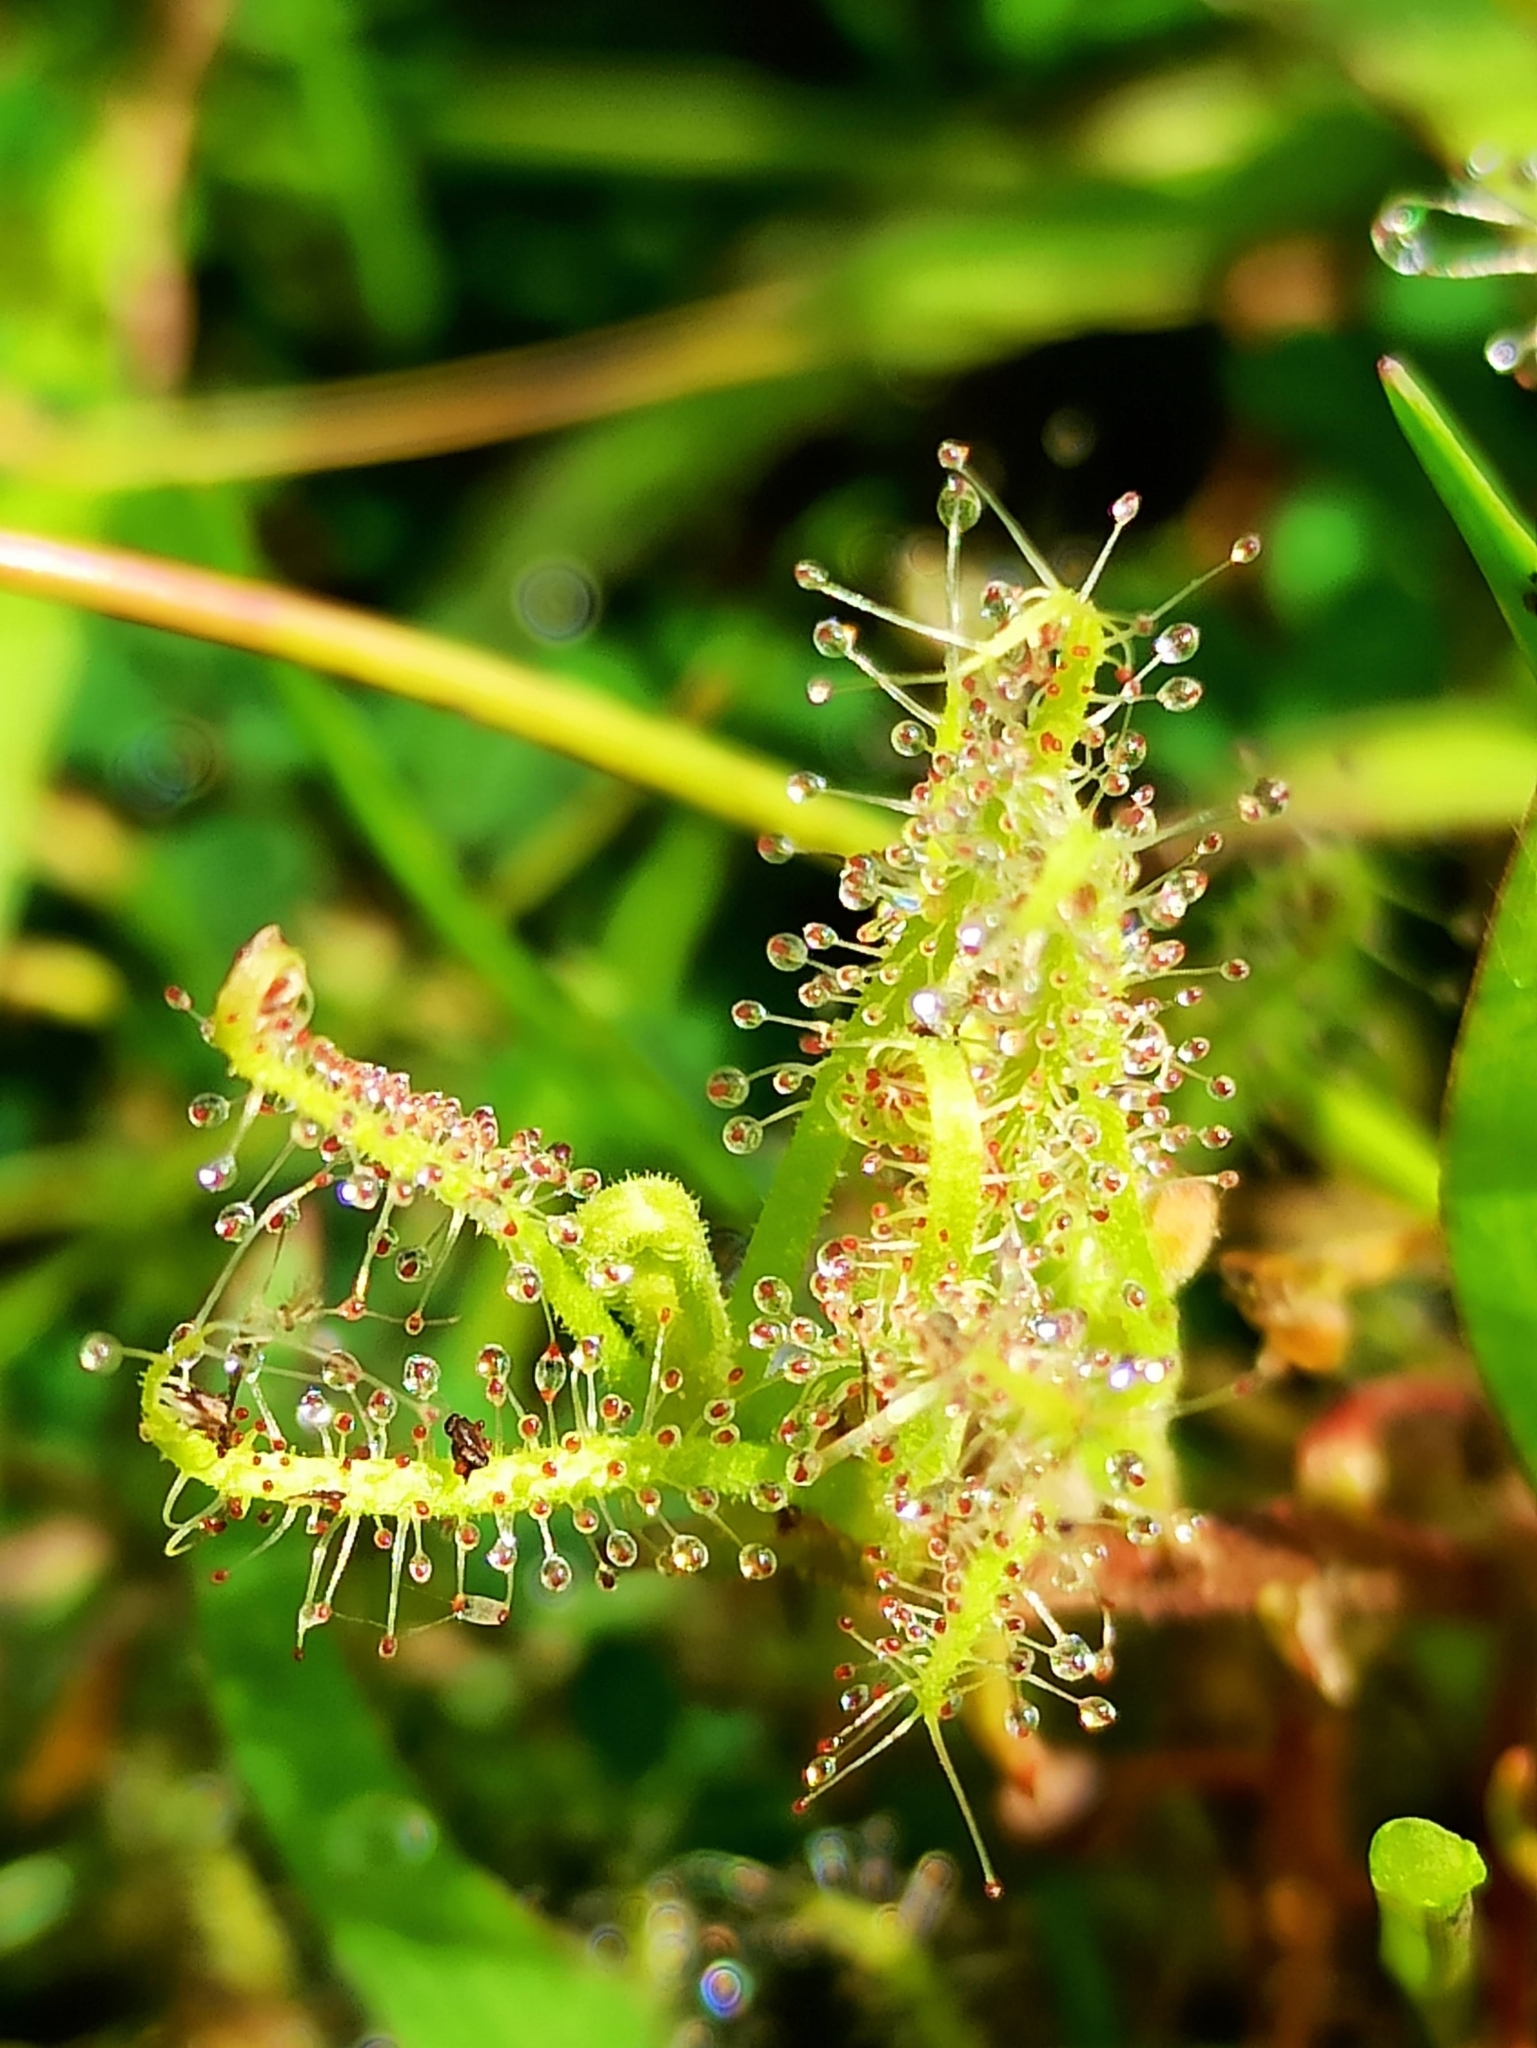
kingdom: Plantae
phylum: Tracheophyta
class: Magnoliopsida
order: Caryophyllales
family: Droseraceae
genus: Drosera
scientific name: Drosera indica
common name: Indian sundew
